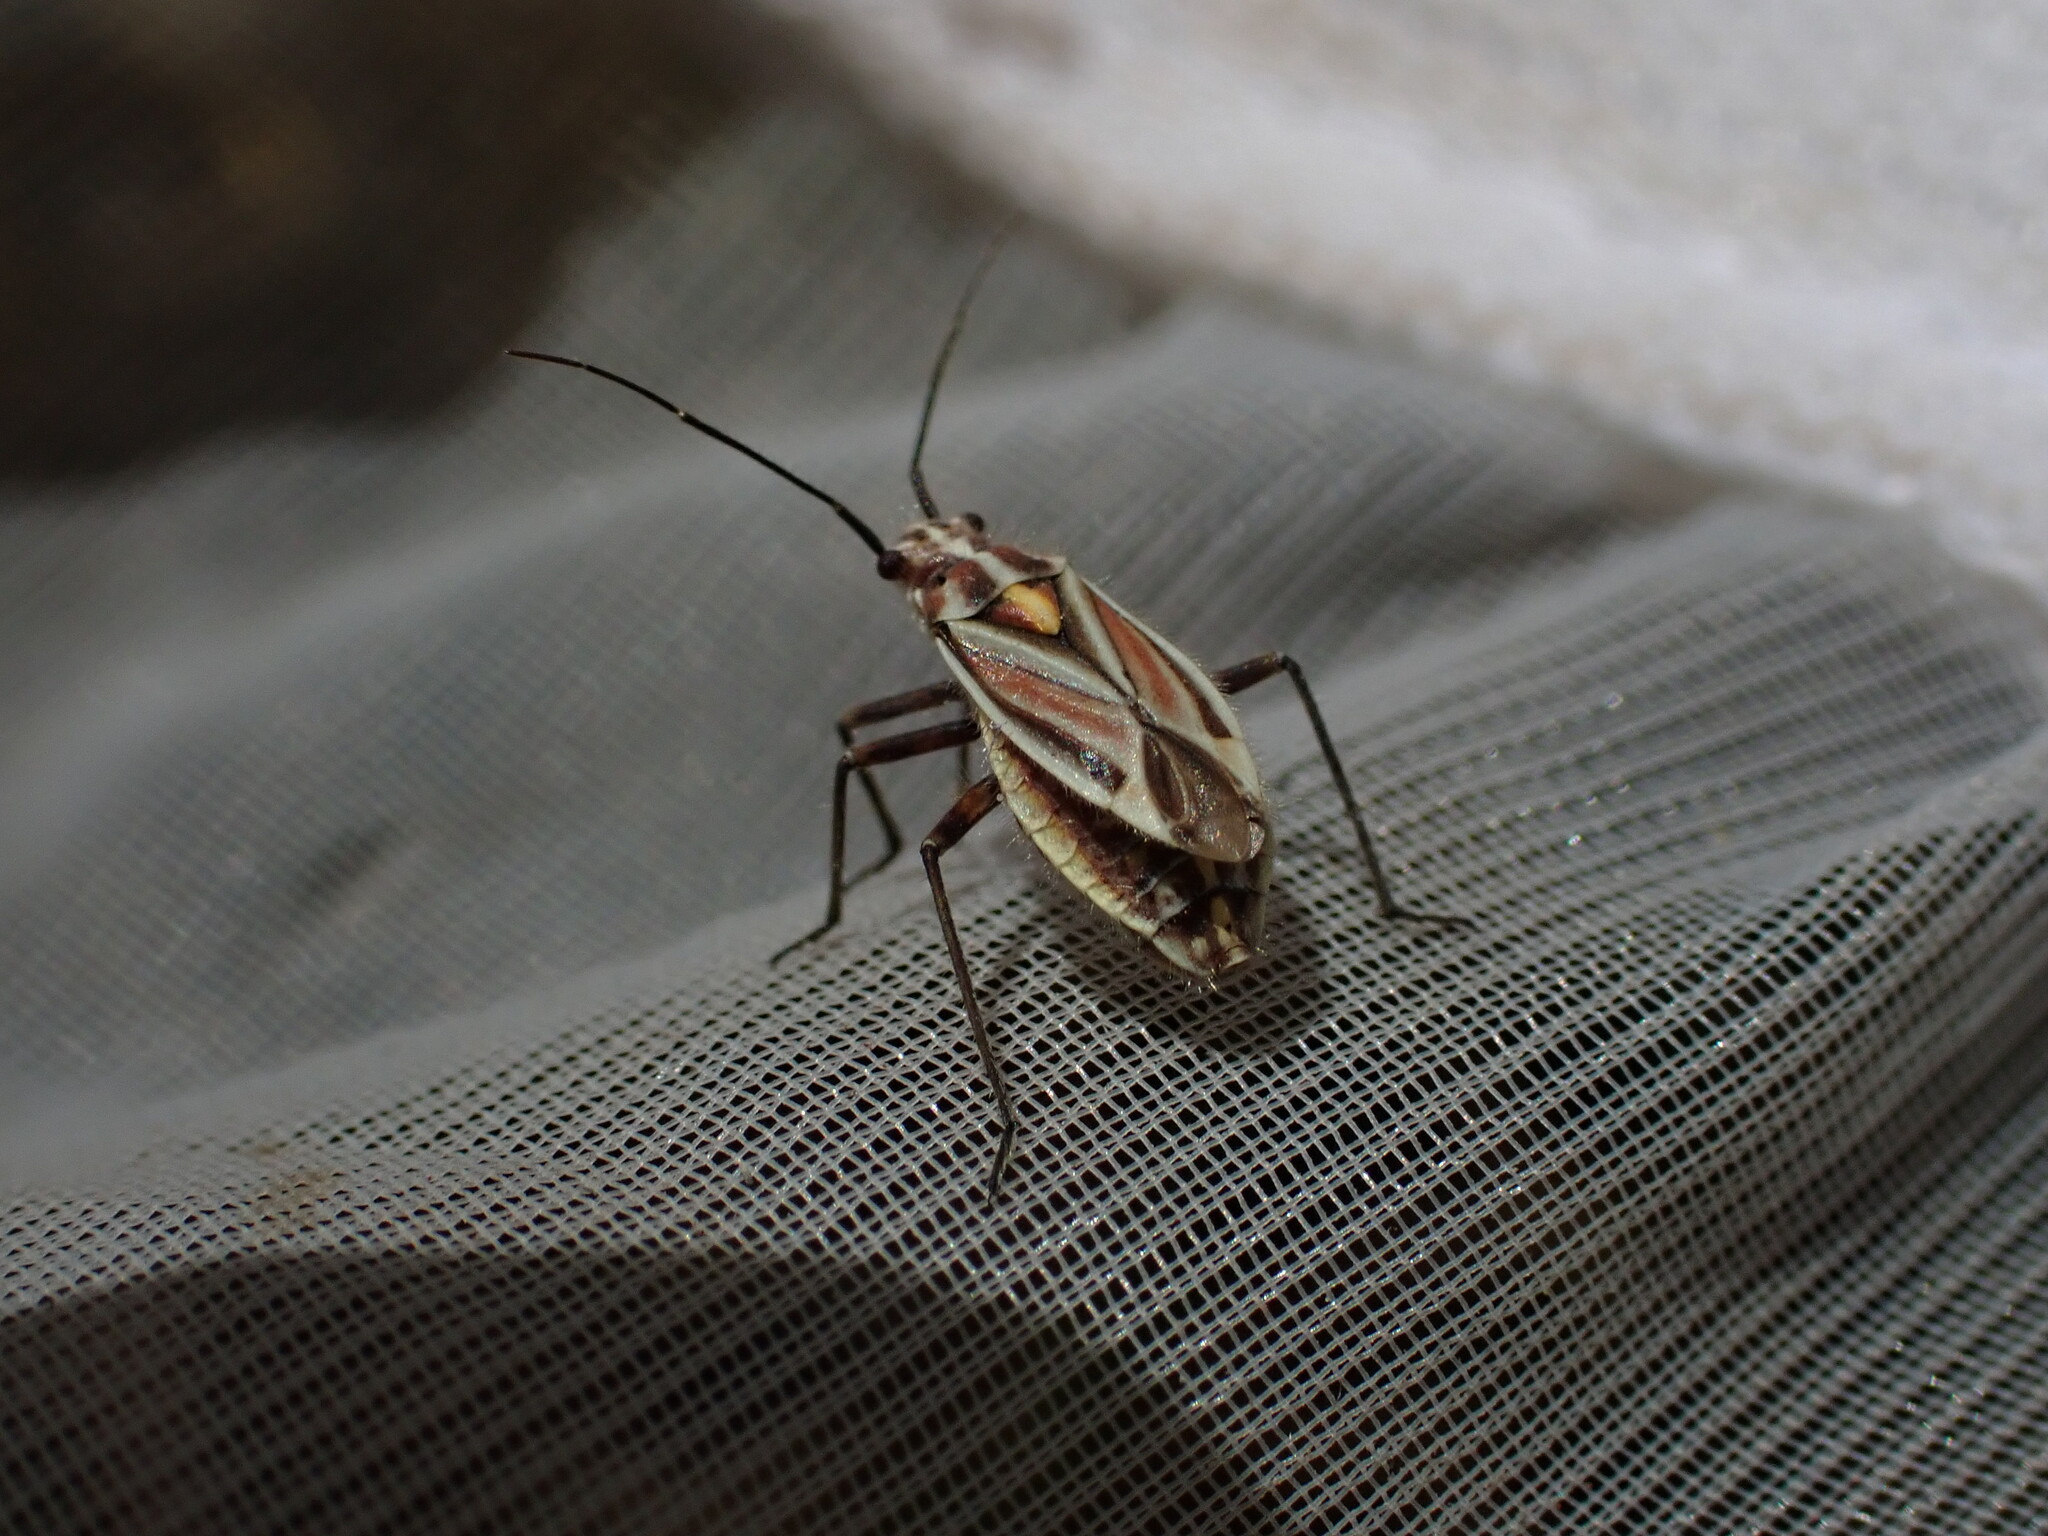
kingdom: Animalia
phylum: Arthropoda
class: Insecta
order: Hemiptera
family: Miridae
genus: Horistus
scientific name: Horistus orientalis
